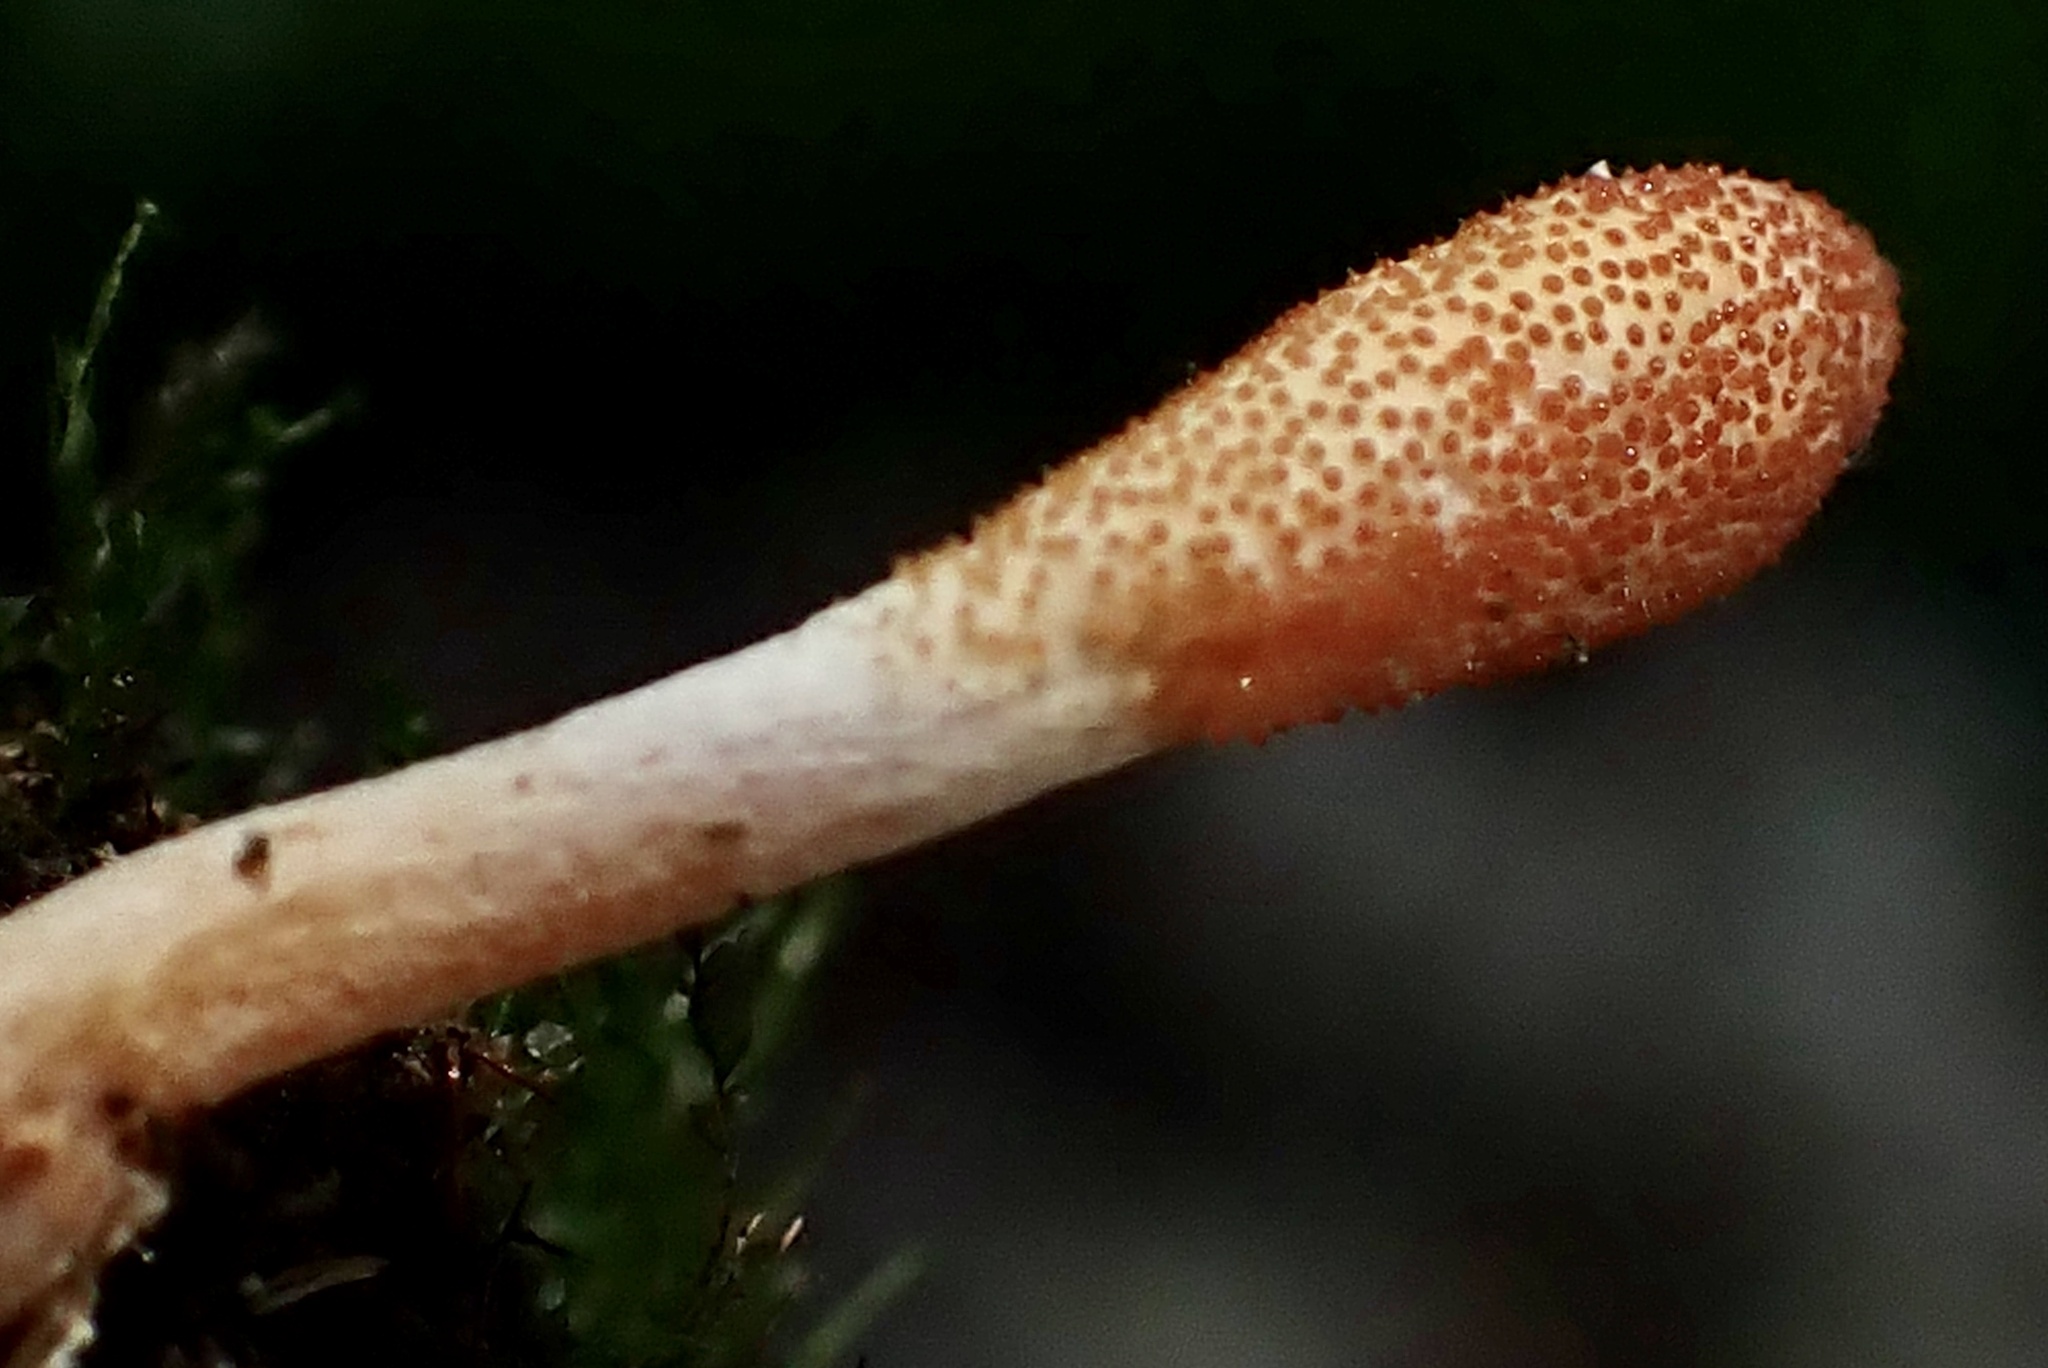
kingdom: Fungi
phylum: Ascomycota
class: Sordariomycetes
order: Hypocreales
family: Cordycipitaceae
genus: Cordyceps
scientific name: Cordyceps militaris
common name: Scarlet caterpillar fungus
